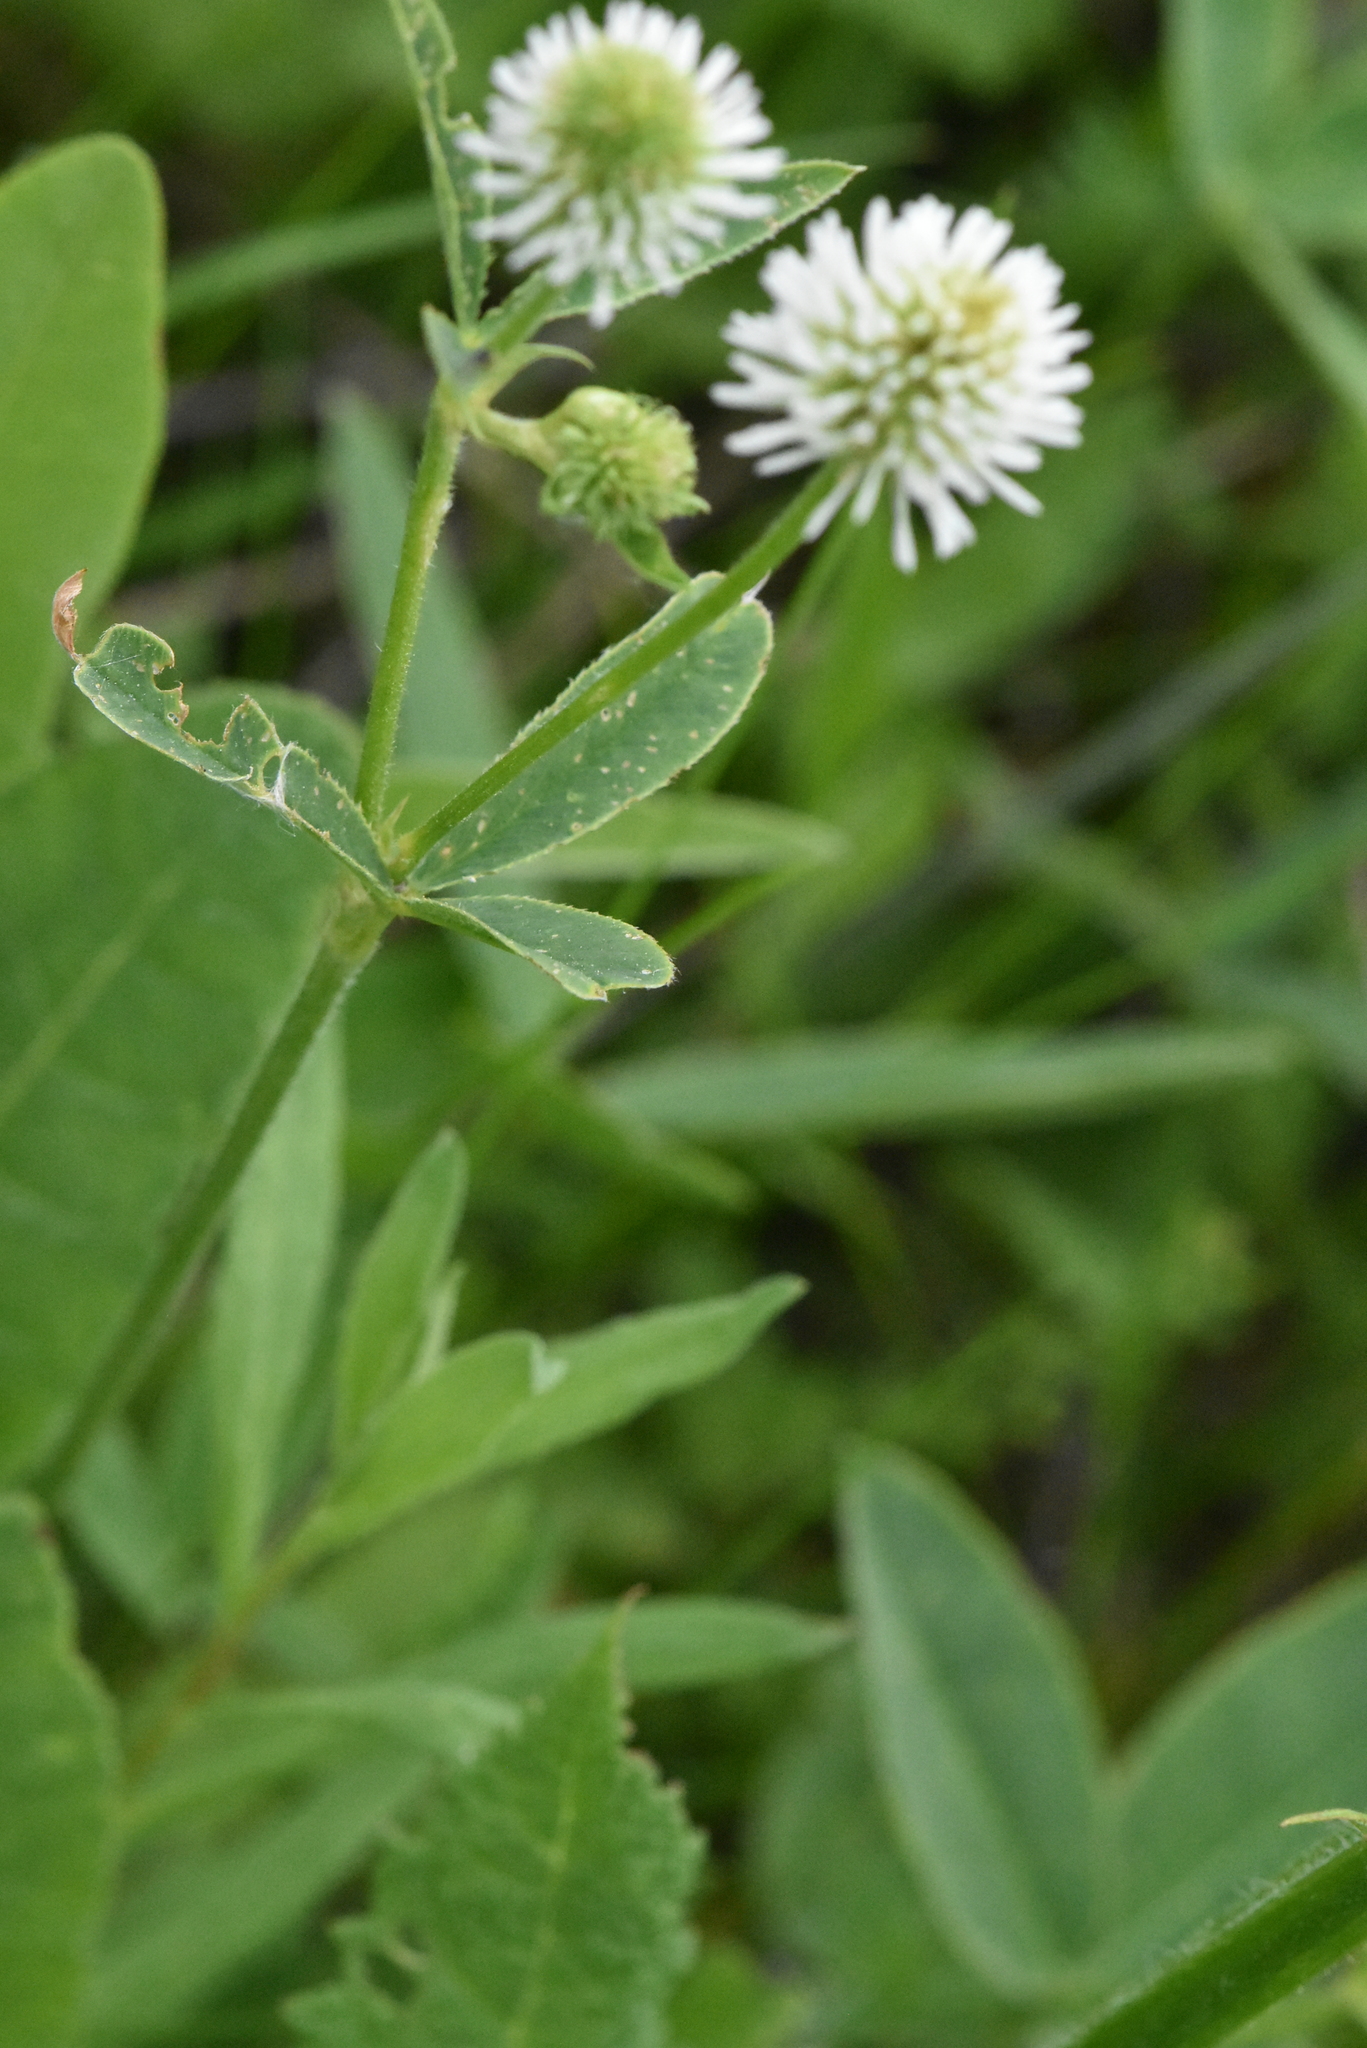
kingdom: Plantae
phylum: Tracheophyta
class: Magnoliopsida
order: Fabales
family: Fabaceae
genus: Trifolium
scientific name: Trifolium montanum
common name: Mountain clover
